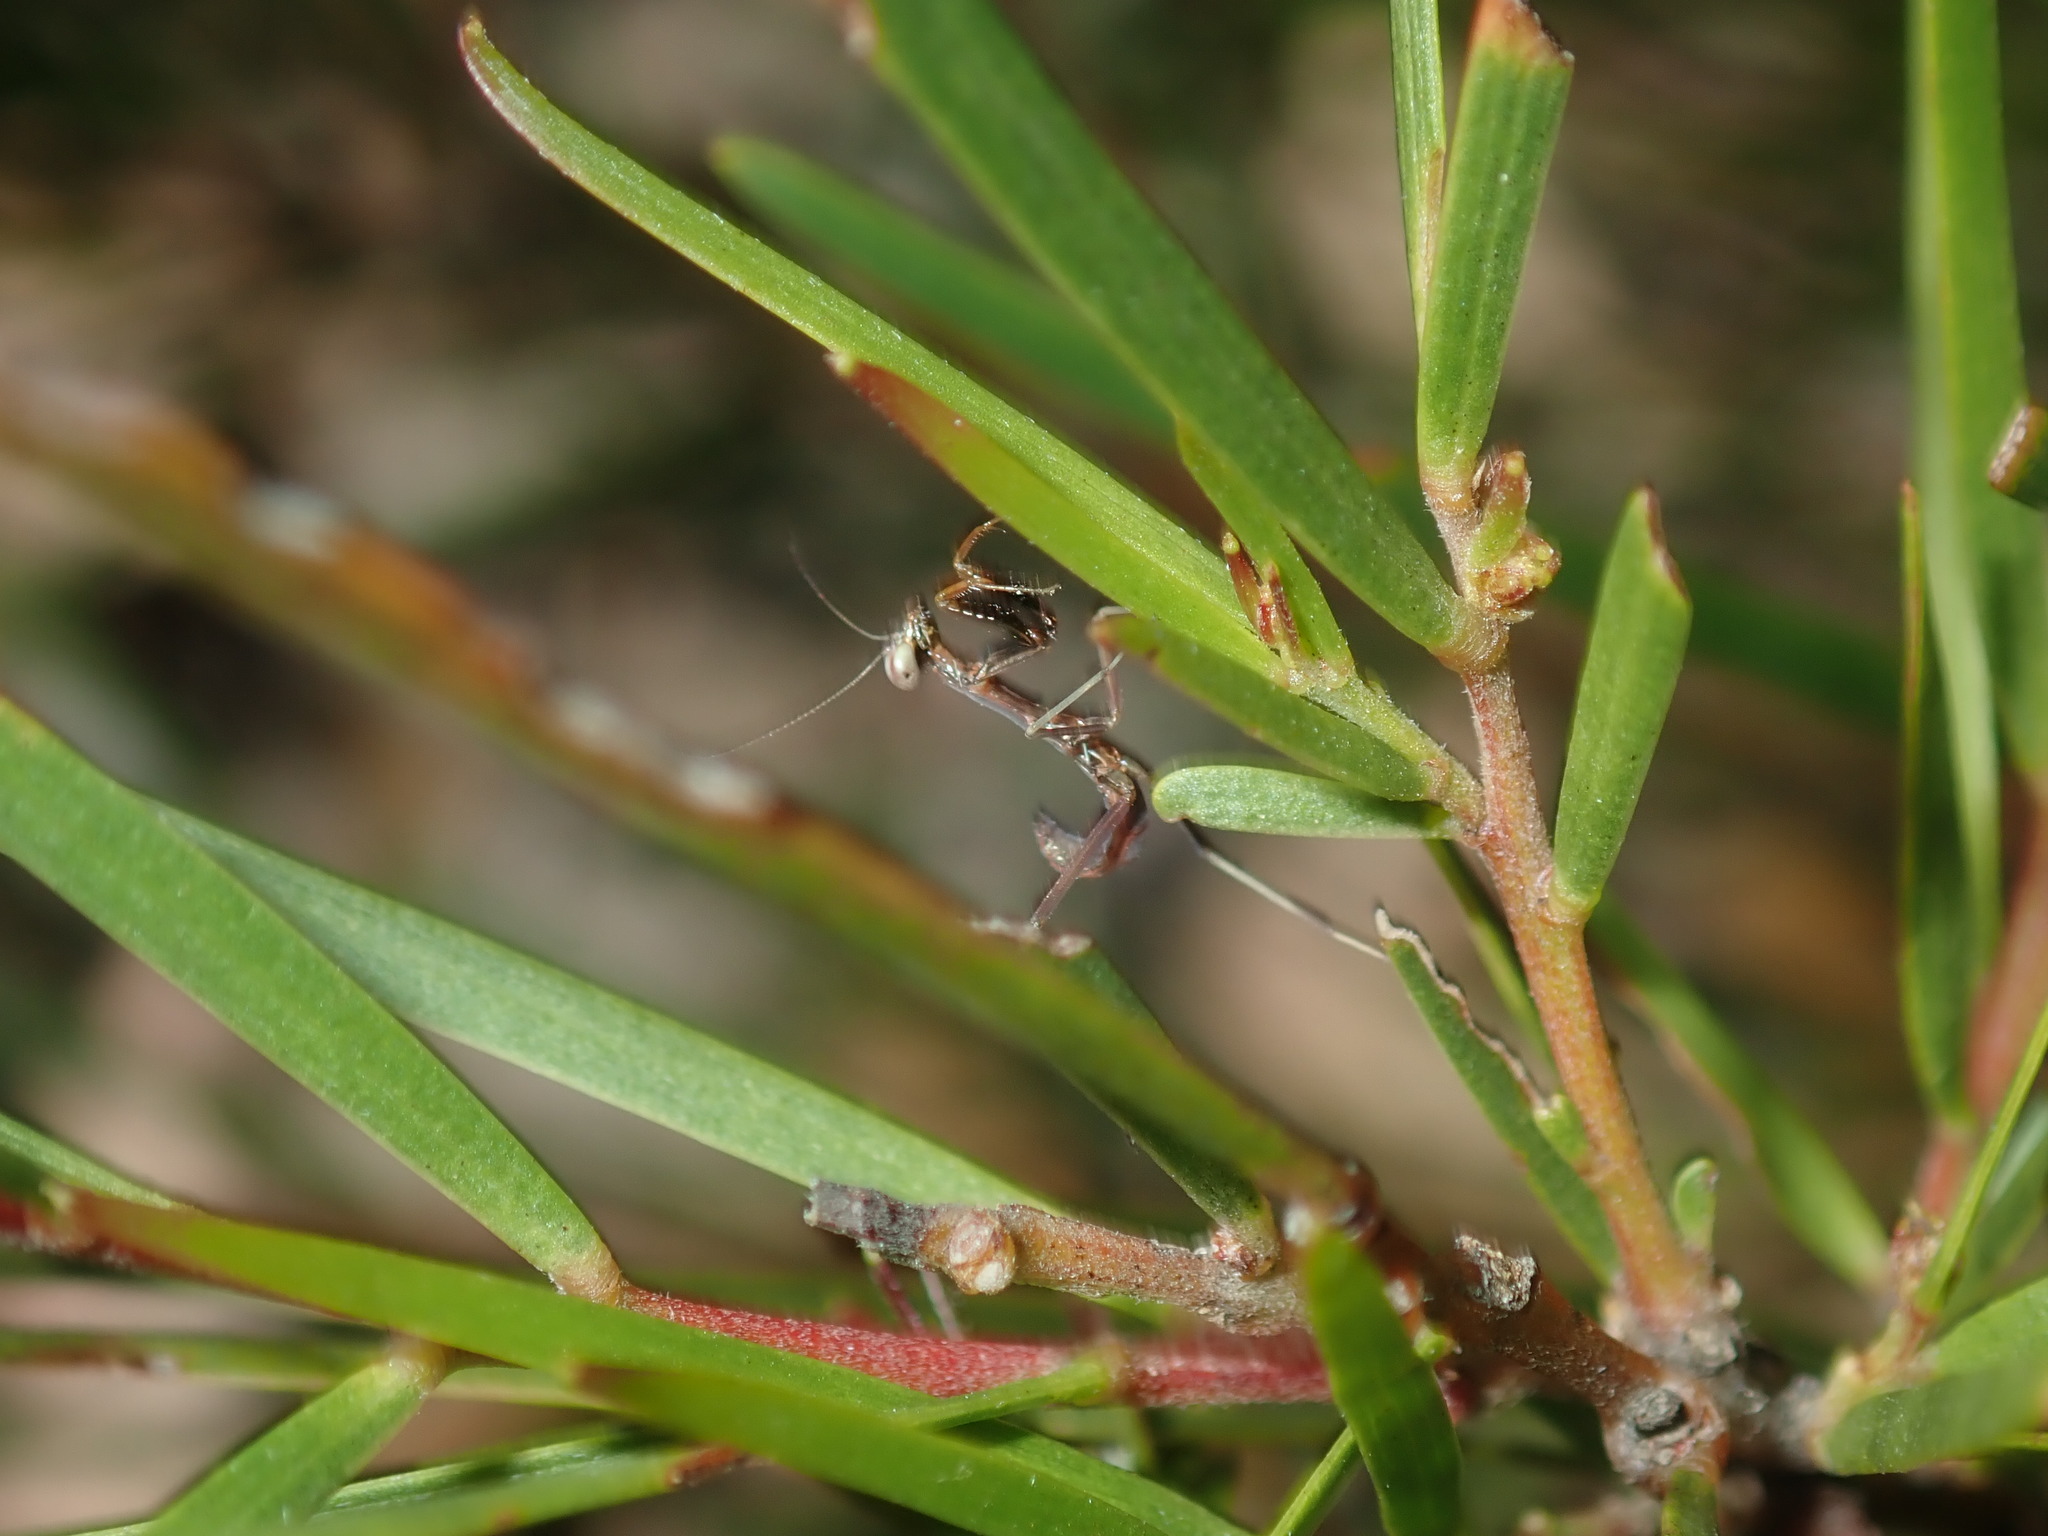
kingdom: Animalia
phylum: Arthropoda
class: Insecta
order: Mantodea
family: Mantidae
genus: Pseudomantis
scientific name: Pseudomantis albofimbriata
